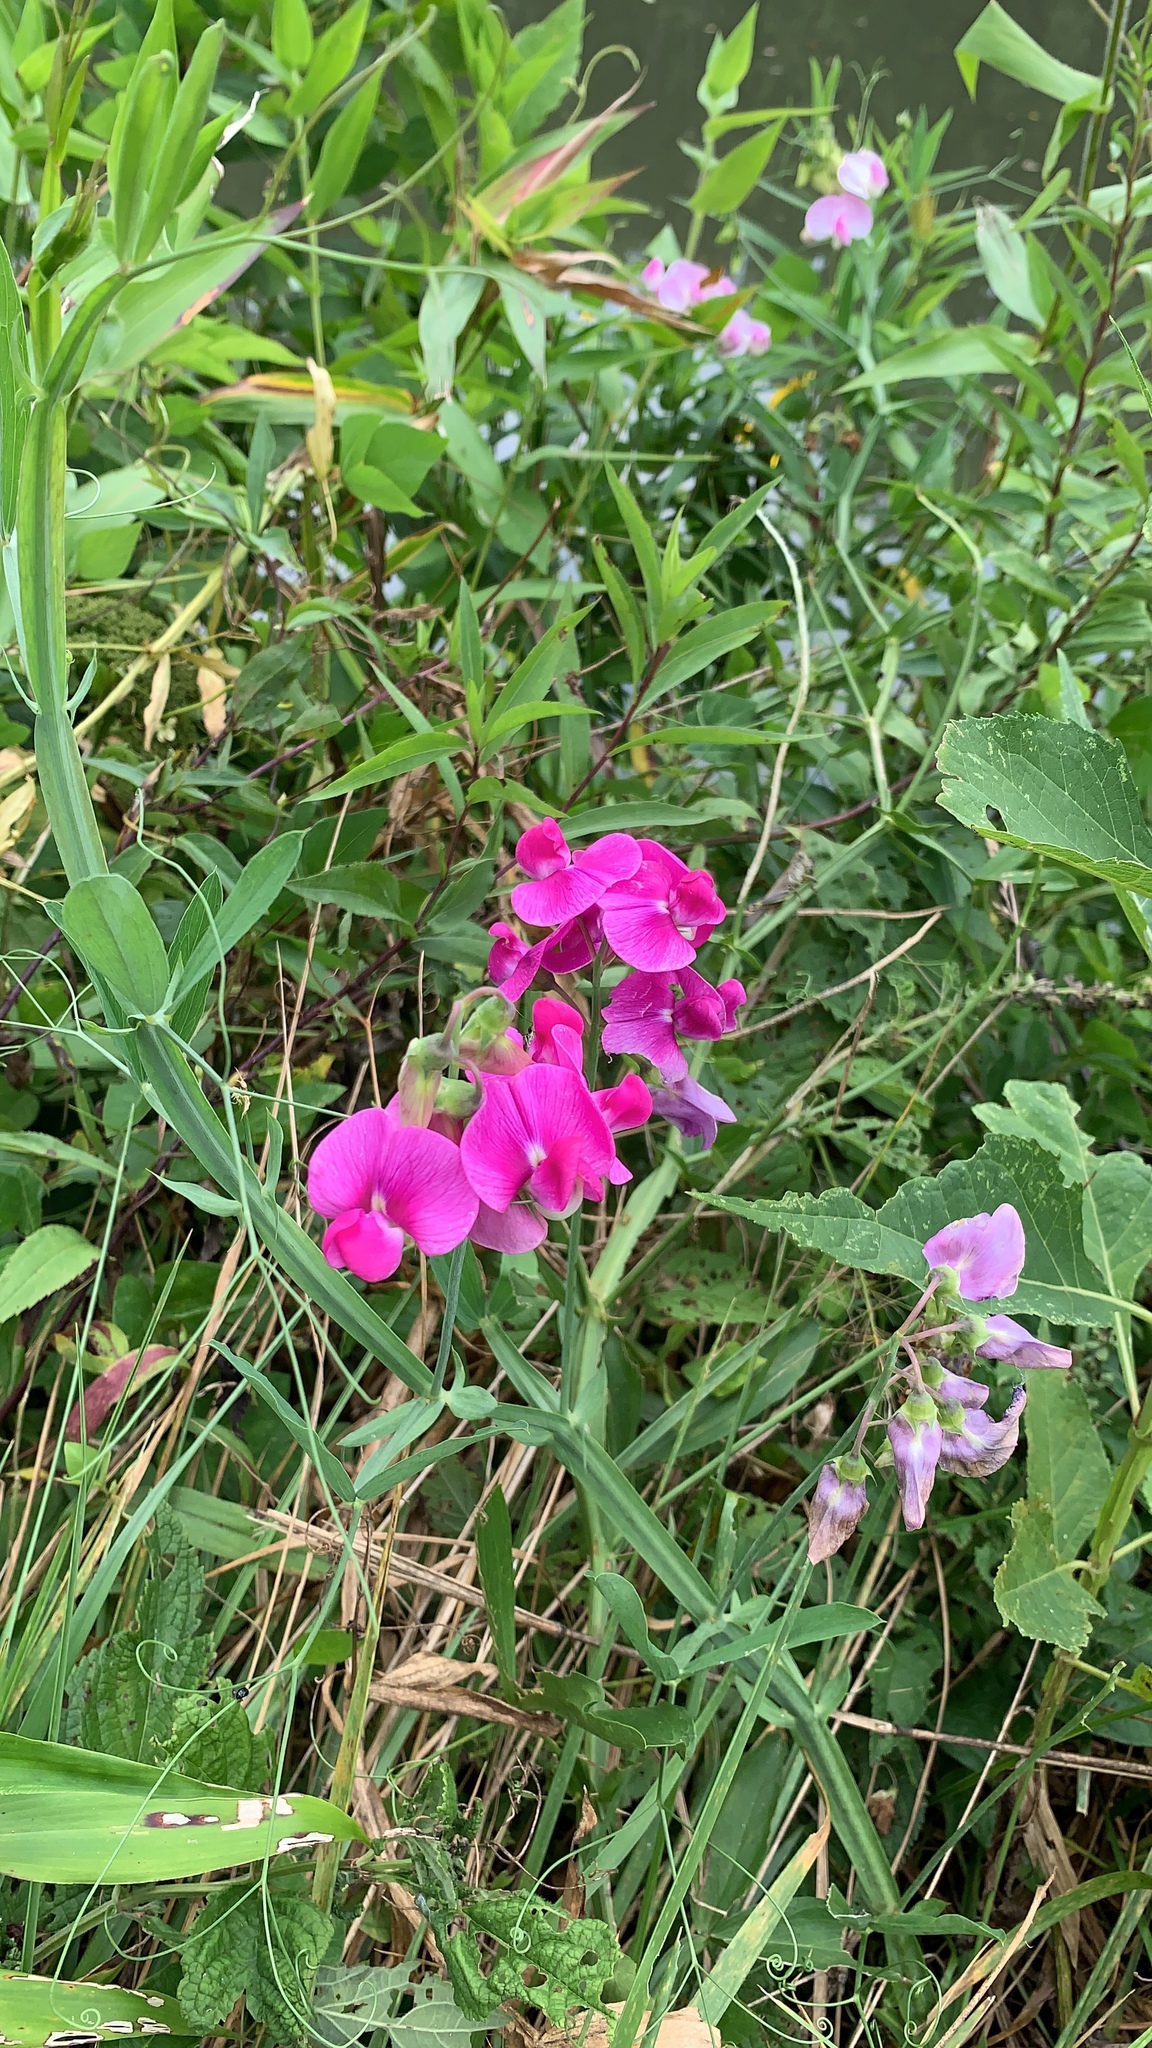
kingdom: Plantae
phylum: Tracheophyta
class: Magnoliopsida
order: Fabales
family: Fabaceae
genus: Lathyrus
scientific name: Lathyrus latifolius
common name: Perennial pea
